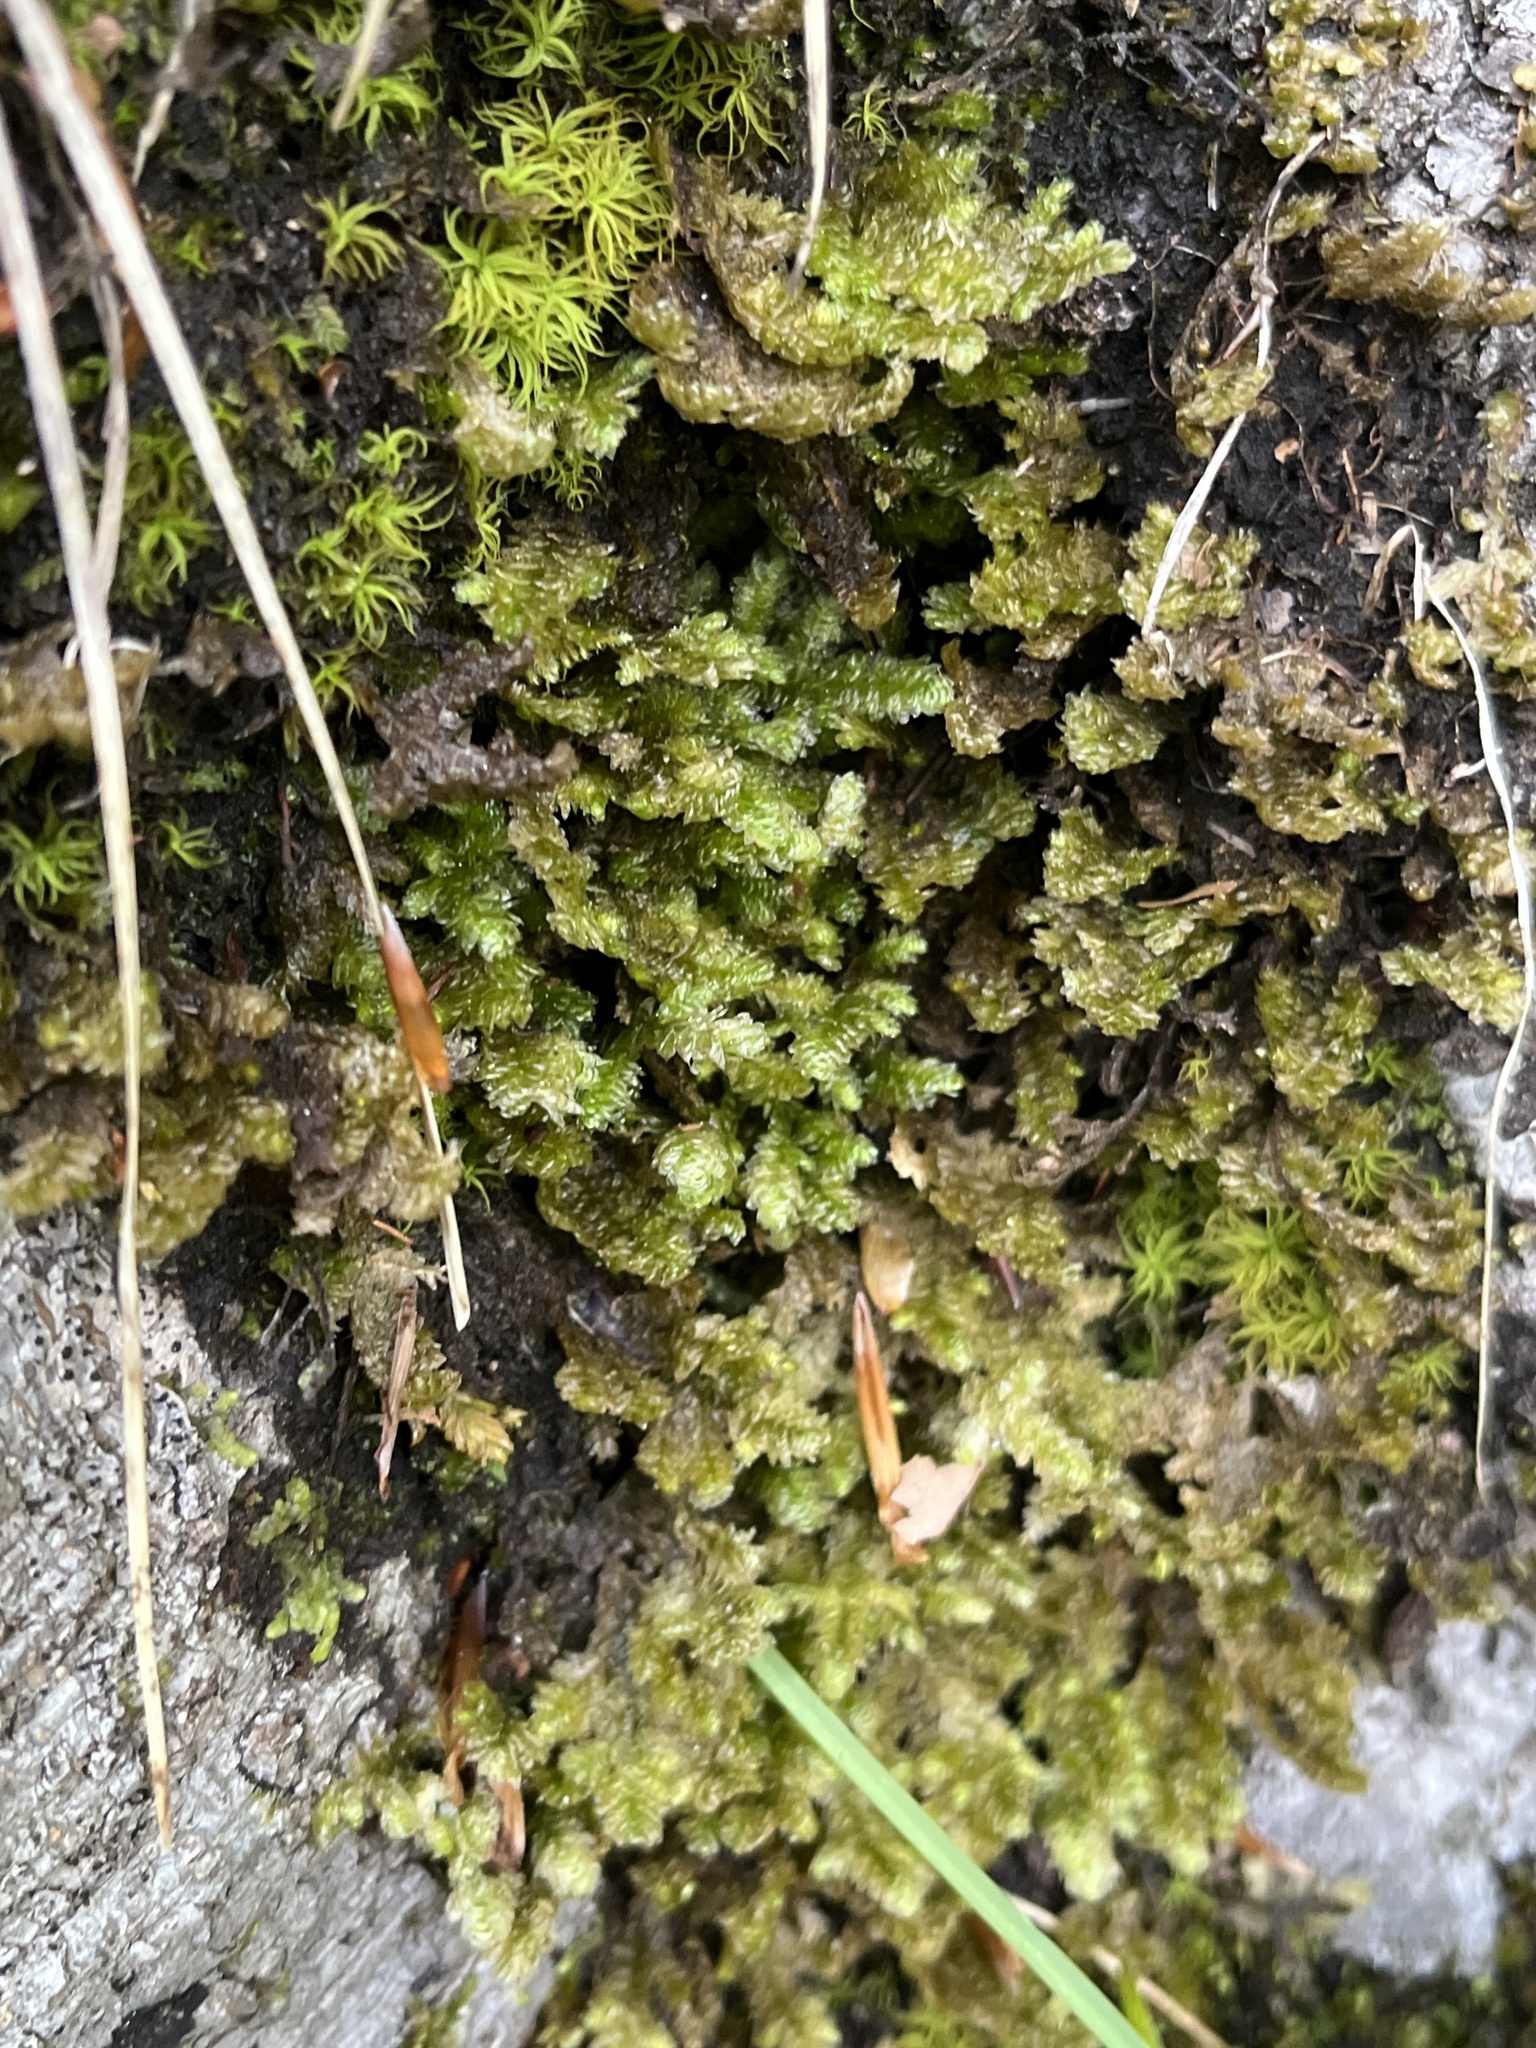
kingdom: Plantae
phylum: Bryophyta
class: Bryopsida
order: Hypnales
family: Neckeraceae
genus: Exsertotheca
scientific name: Exsertotheca crispa
